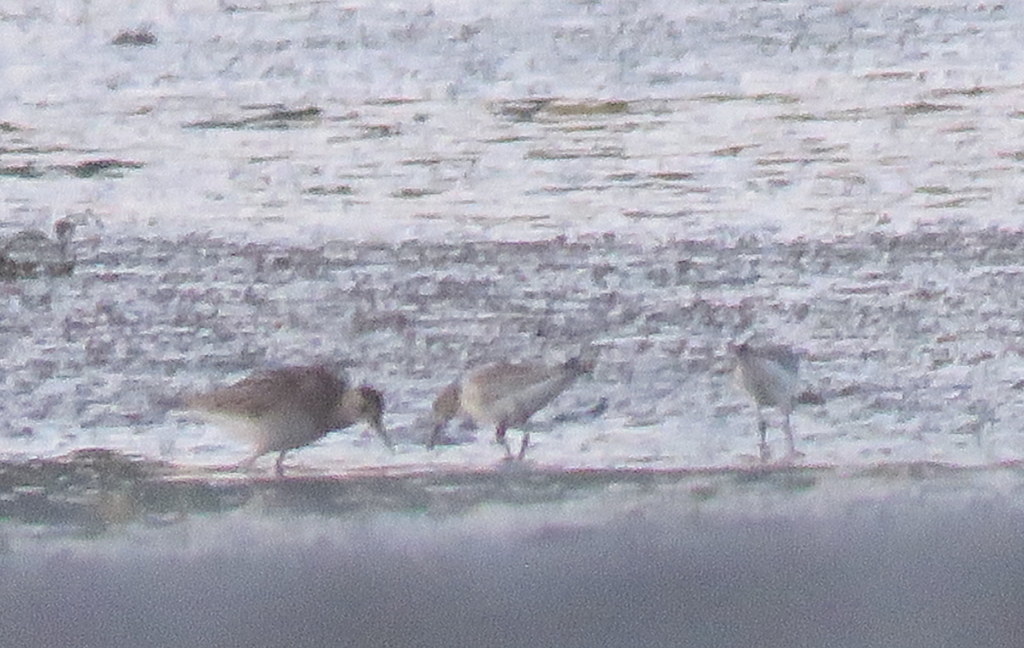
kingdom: Animalia
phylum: Chordata
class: Aves
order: Charadriiformes
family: Scolopacidae
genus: Calidris
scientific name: Calidris melanotos
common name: Pectoral sandpiper
